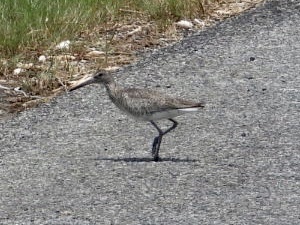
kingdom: Animalia
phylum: Chordata
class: Aves
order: Charadriiformes
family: Scolopacidae
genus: Tringa
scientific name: Tringa semipalmata
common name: Willet
